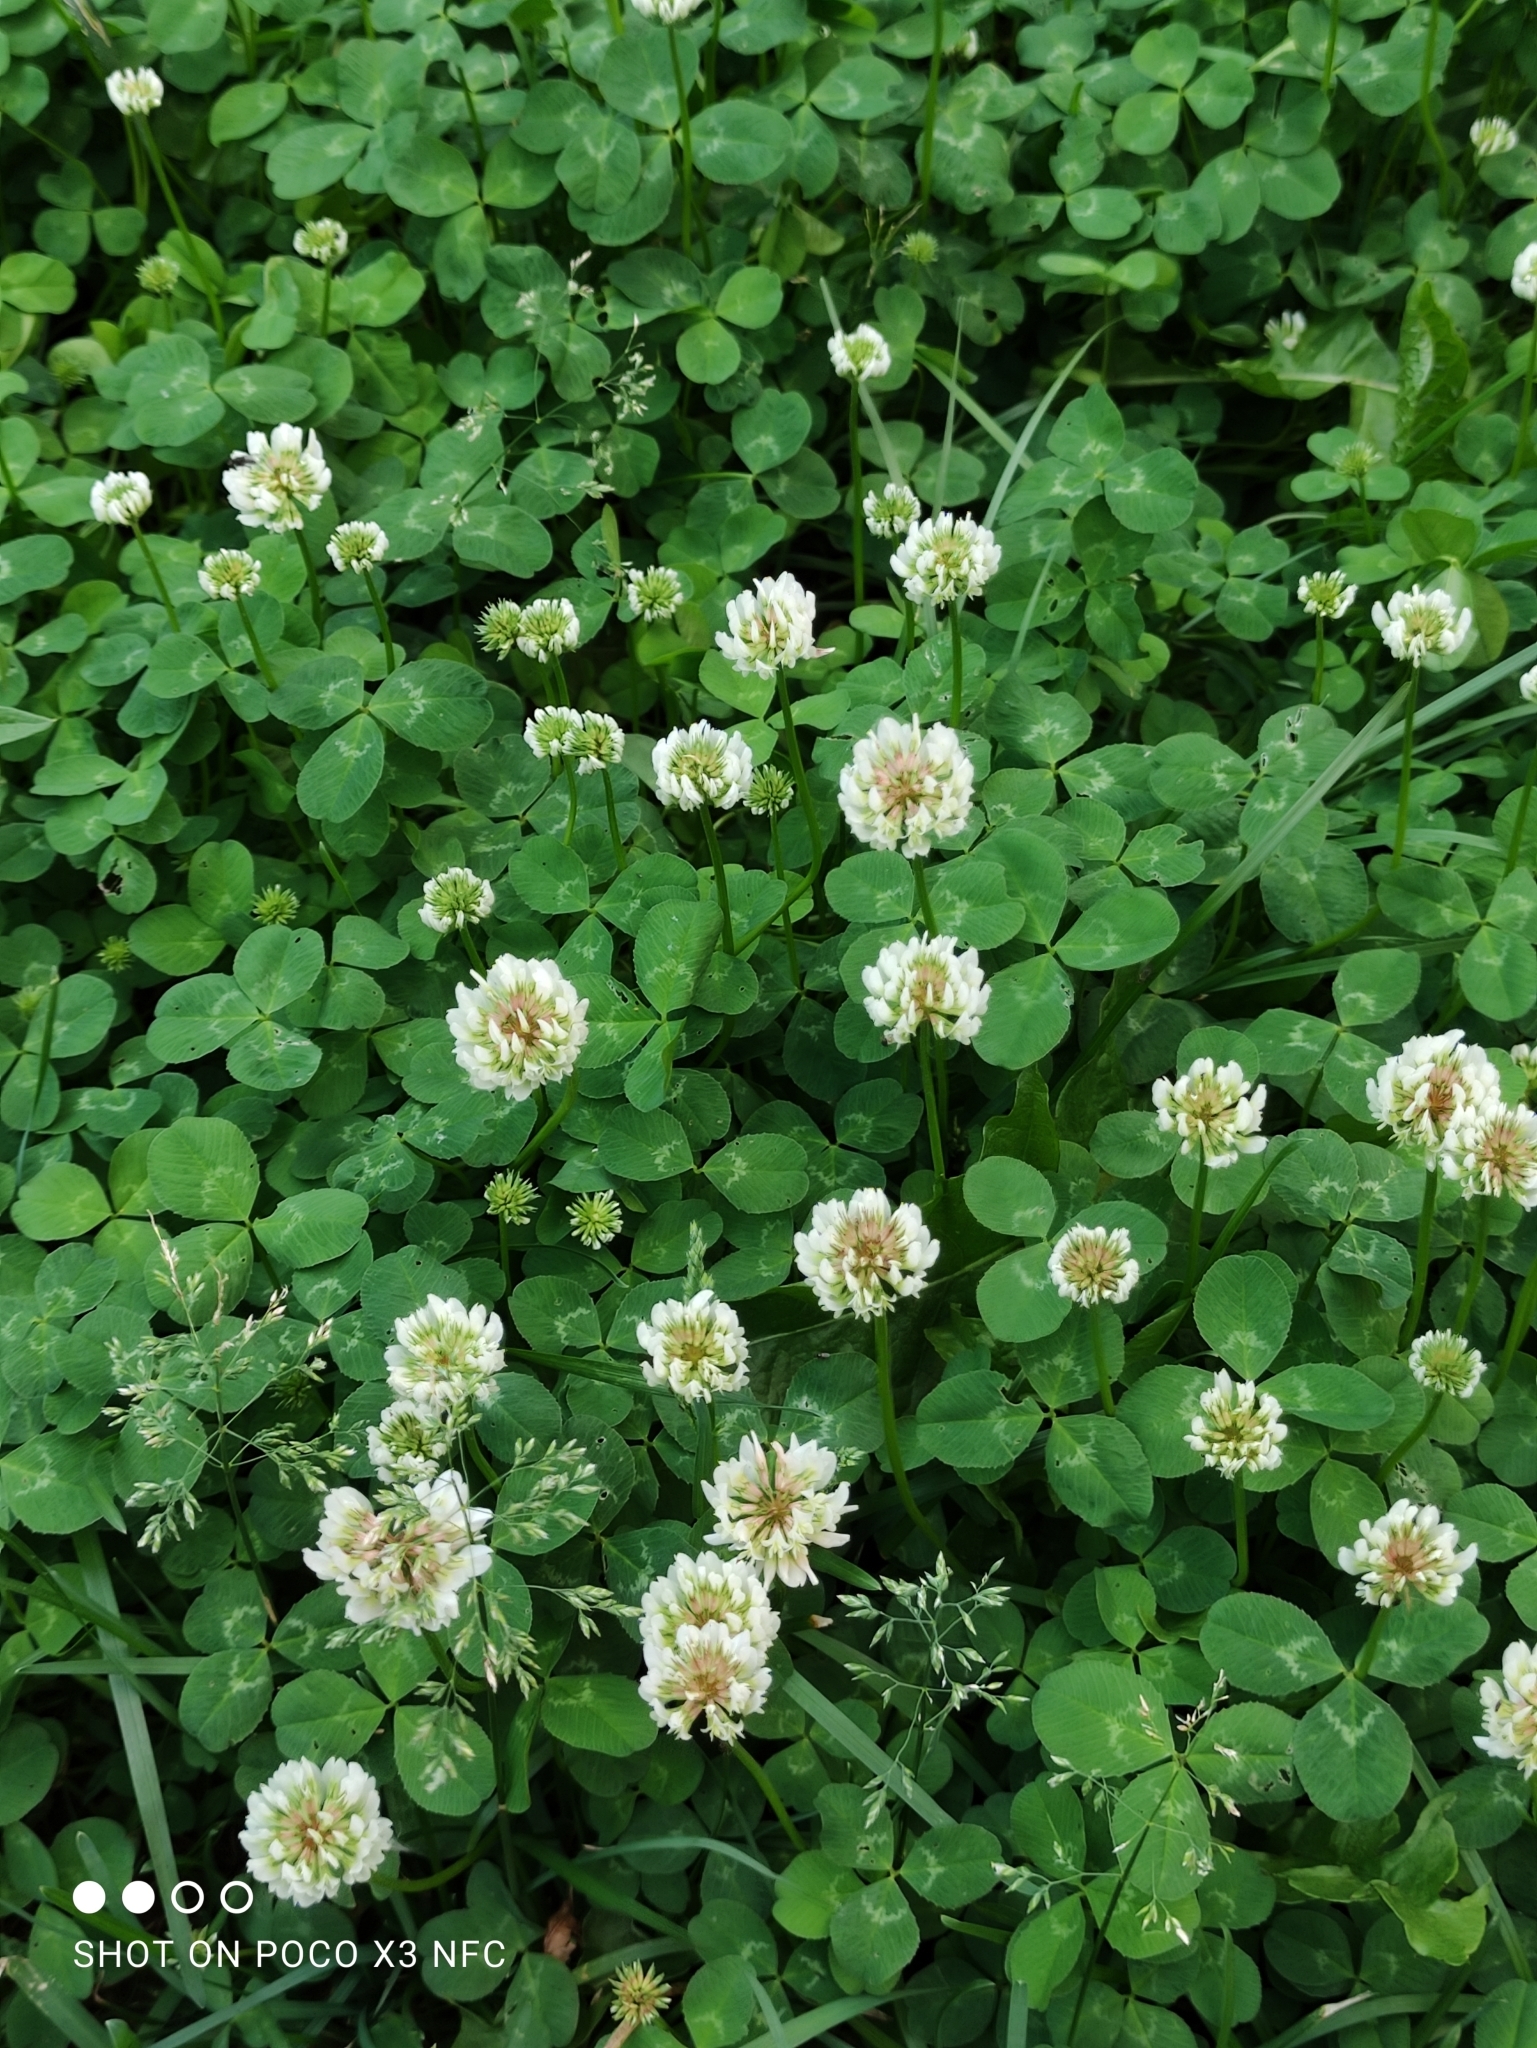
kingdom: Plantae
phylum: Tracheophyta
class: Magnoliopsida
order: Fabales
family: Fabaceae
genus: Trifolium
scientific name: Trifolium repens
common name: White clover
